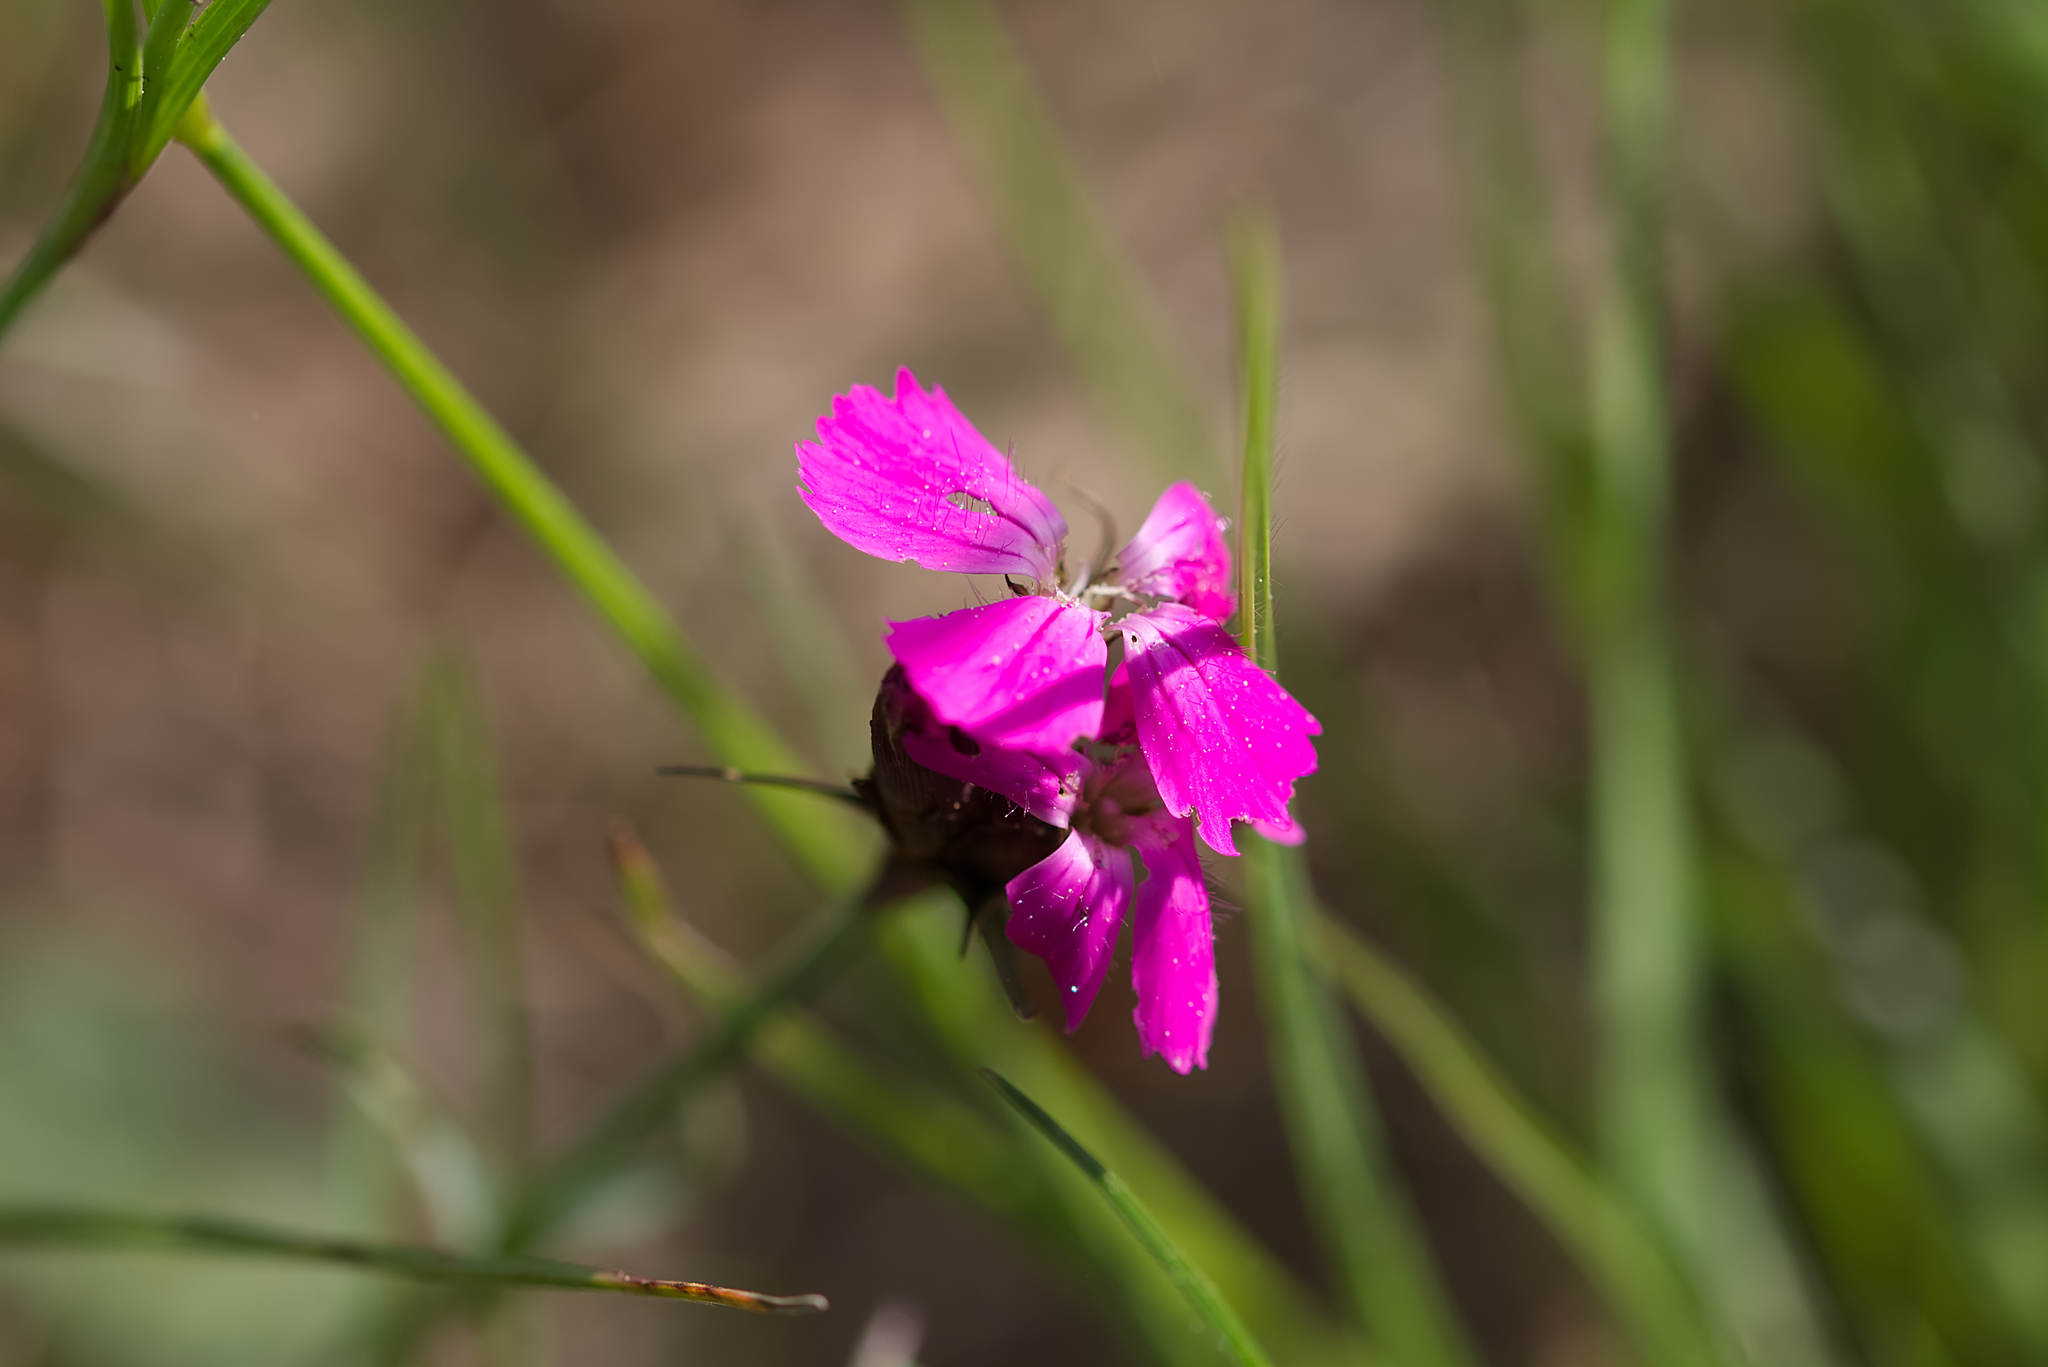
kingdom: Plantae
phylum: Tracheophyta
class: Magnoliopsida
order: Caryophyllales
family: Caryophyllaceae
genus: Dianthus
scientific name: Dianthus carthusianorum
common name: Carthusian pink
